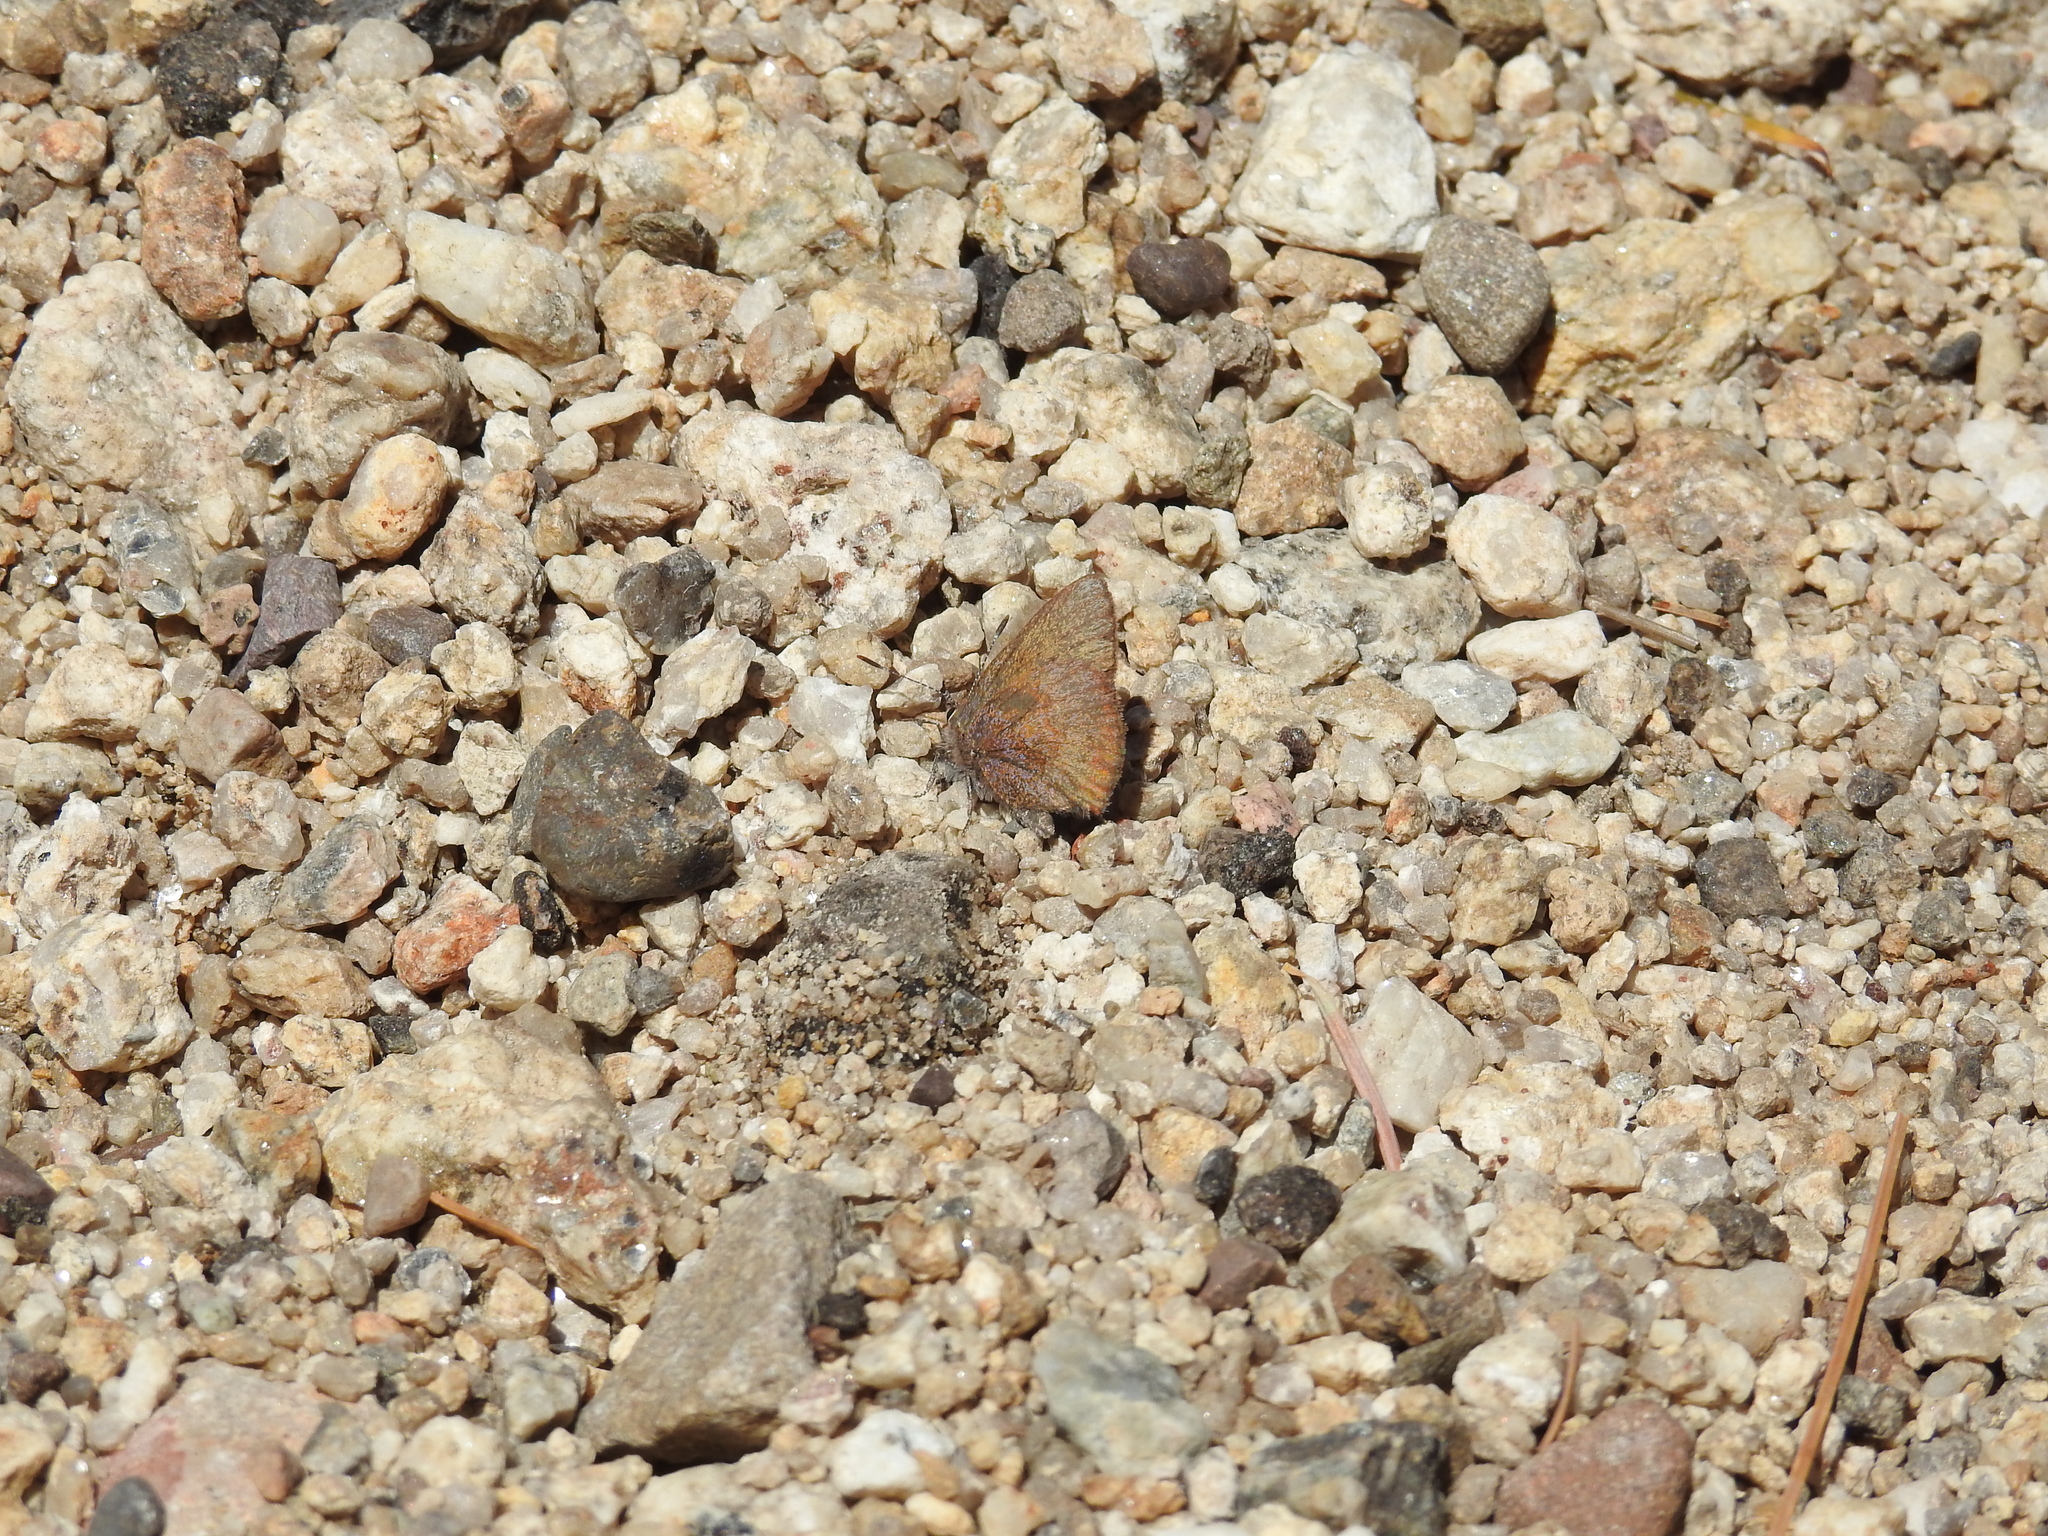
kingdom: Animalia
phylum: Arthropoda
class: Insecta
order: Lepidoptera
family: Lycaenidae
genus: Incisalia
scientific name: Incisalia irioides
